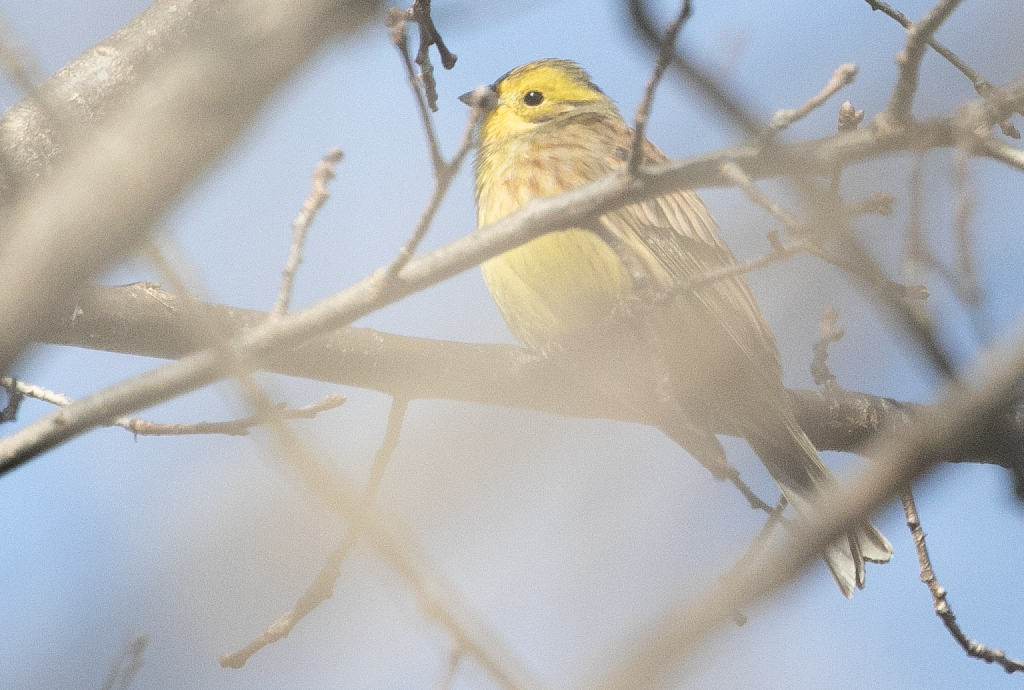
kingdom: Animalia
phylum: Chordata
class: Aves
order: Passeriformes
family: Emberizidae
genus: Emberiza
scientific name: Emberiza citrinella
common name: Yellowhammer
